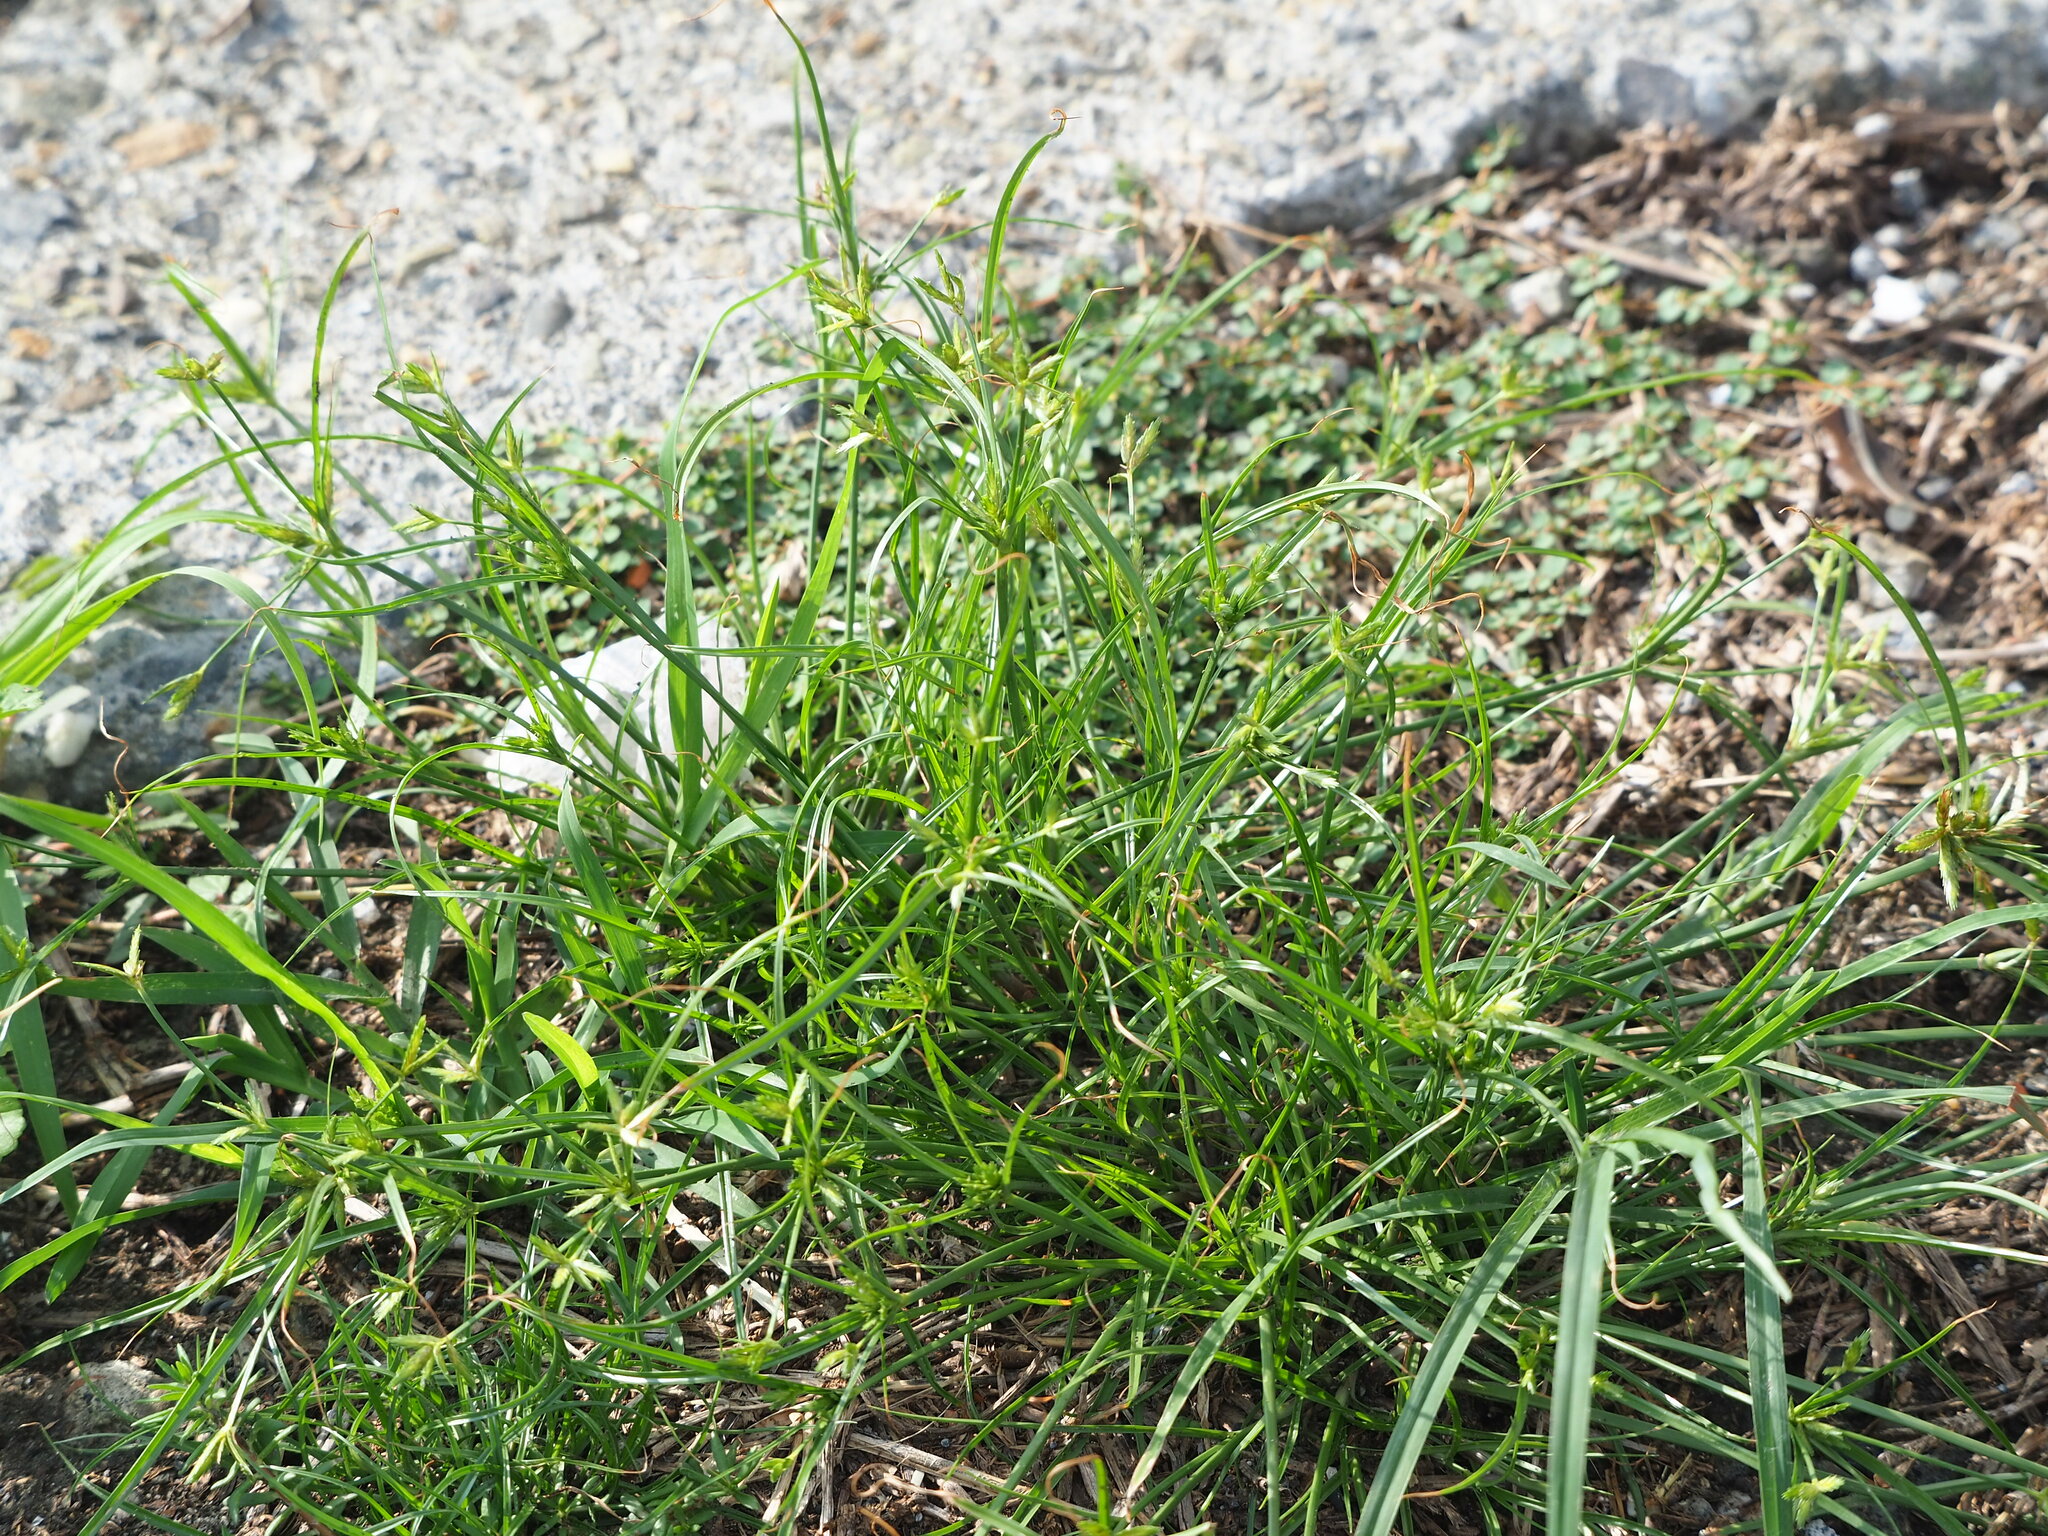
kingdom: Plantae
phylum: Tracheophyta
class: Liliopsida
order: Poales
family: Cyperaceae
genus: Cyperus
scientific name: Cyperus compressus
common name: Poorland flatsedge
